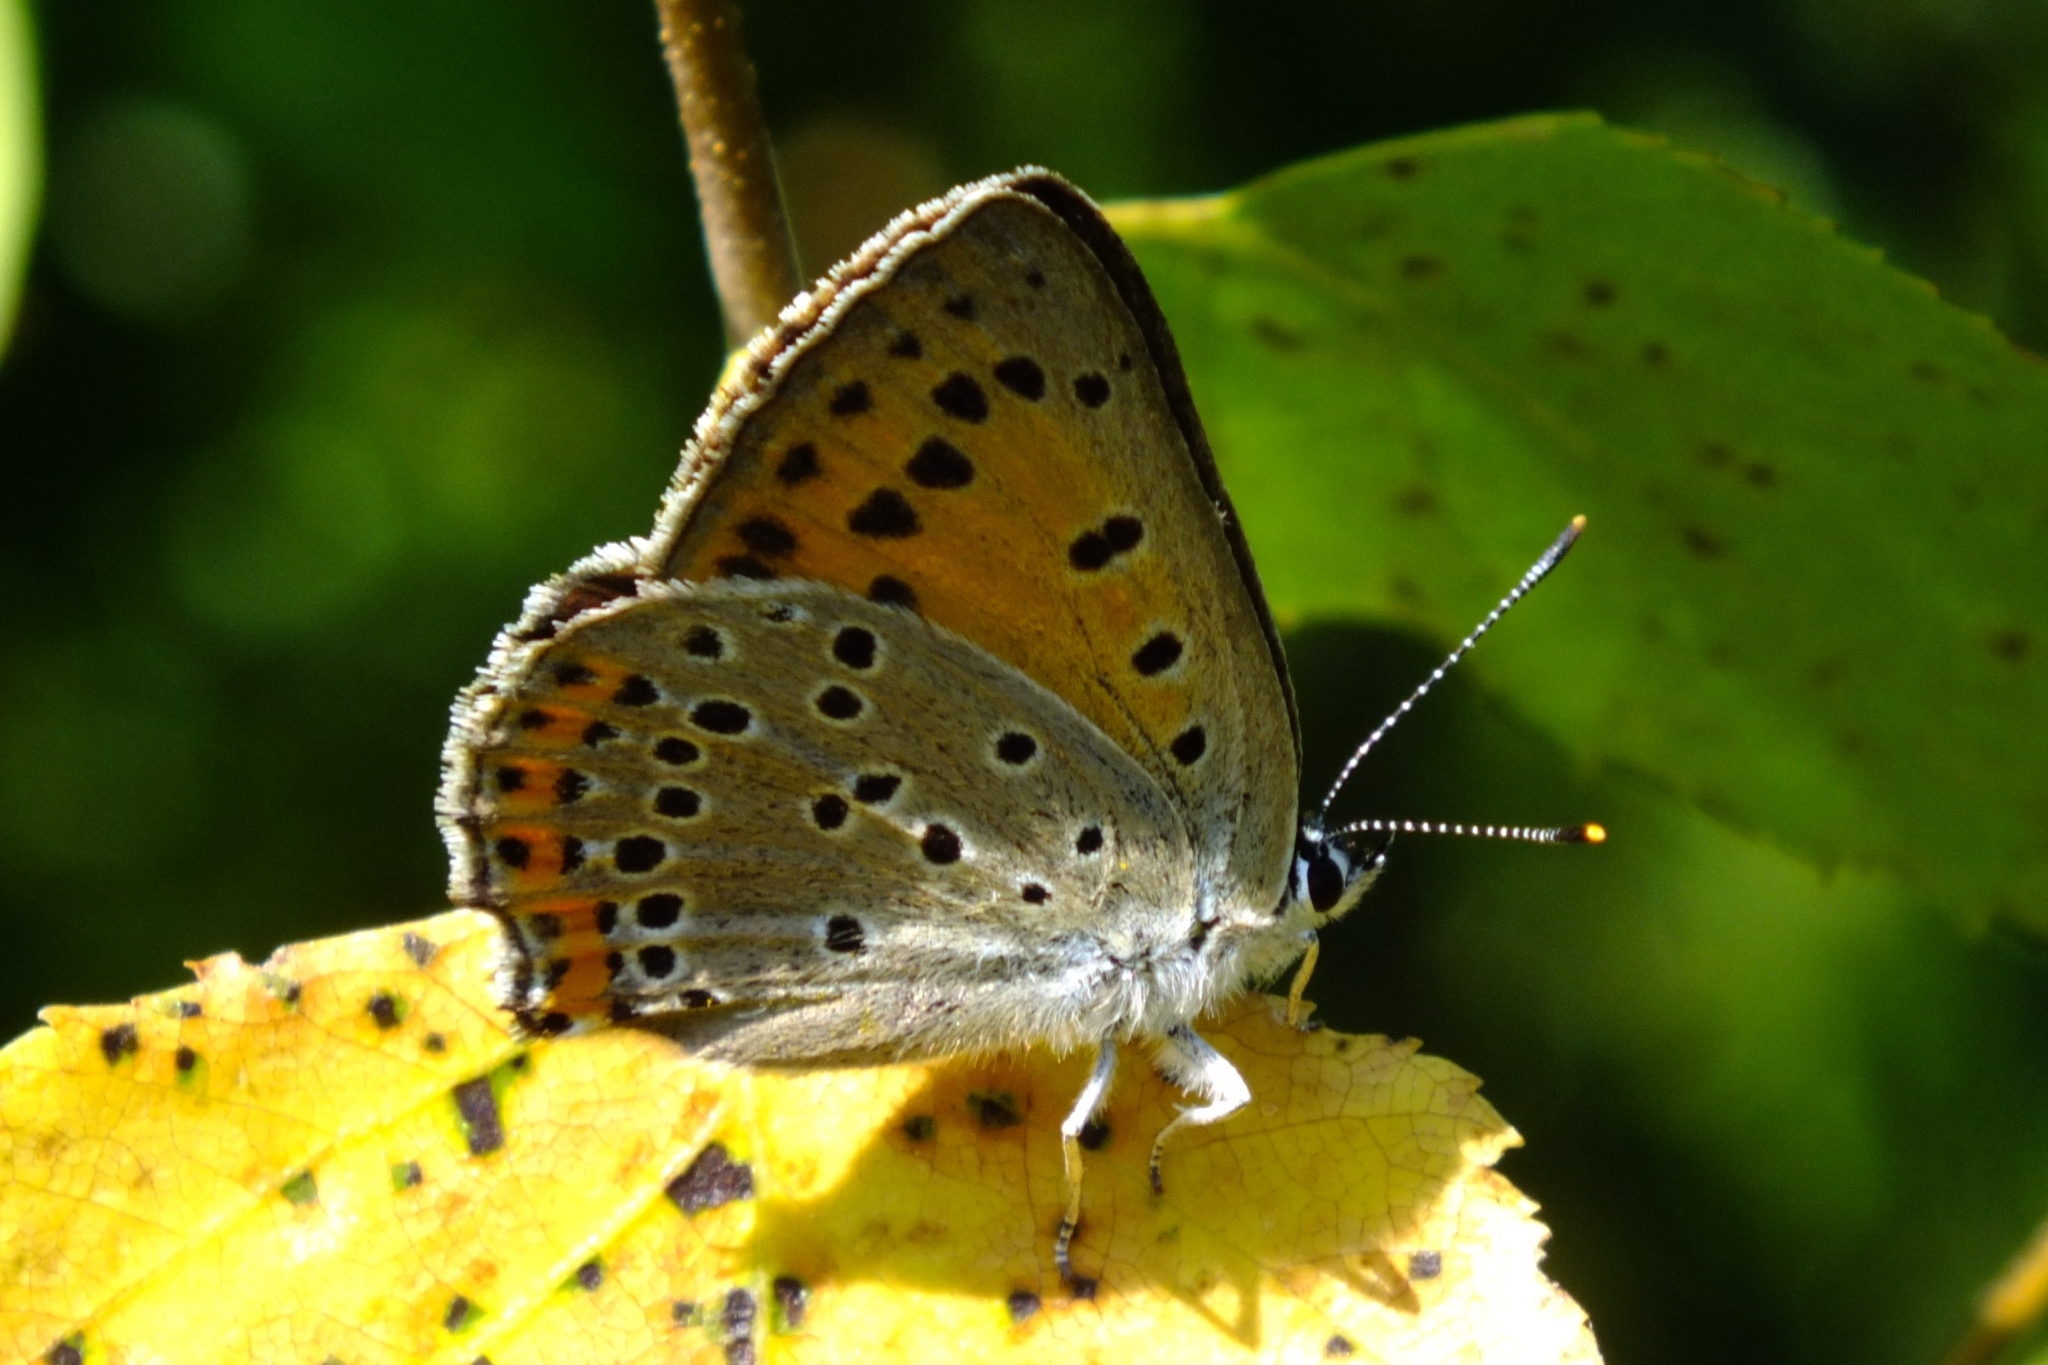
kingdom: Animalia
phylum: Arthropoda
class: Insecta
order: Lepidoptera
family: Lycaenidae
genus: Lycaena
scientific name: Lycaena alciphron
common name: Purple-shot copper
